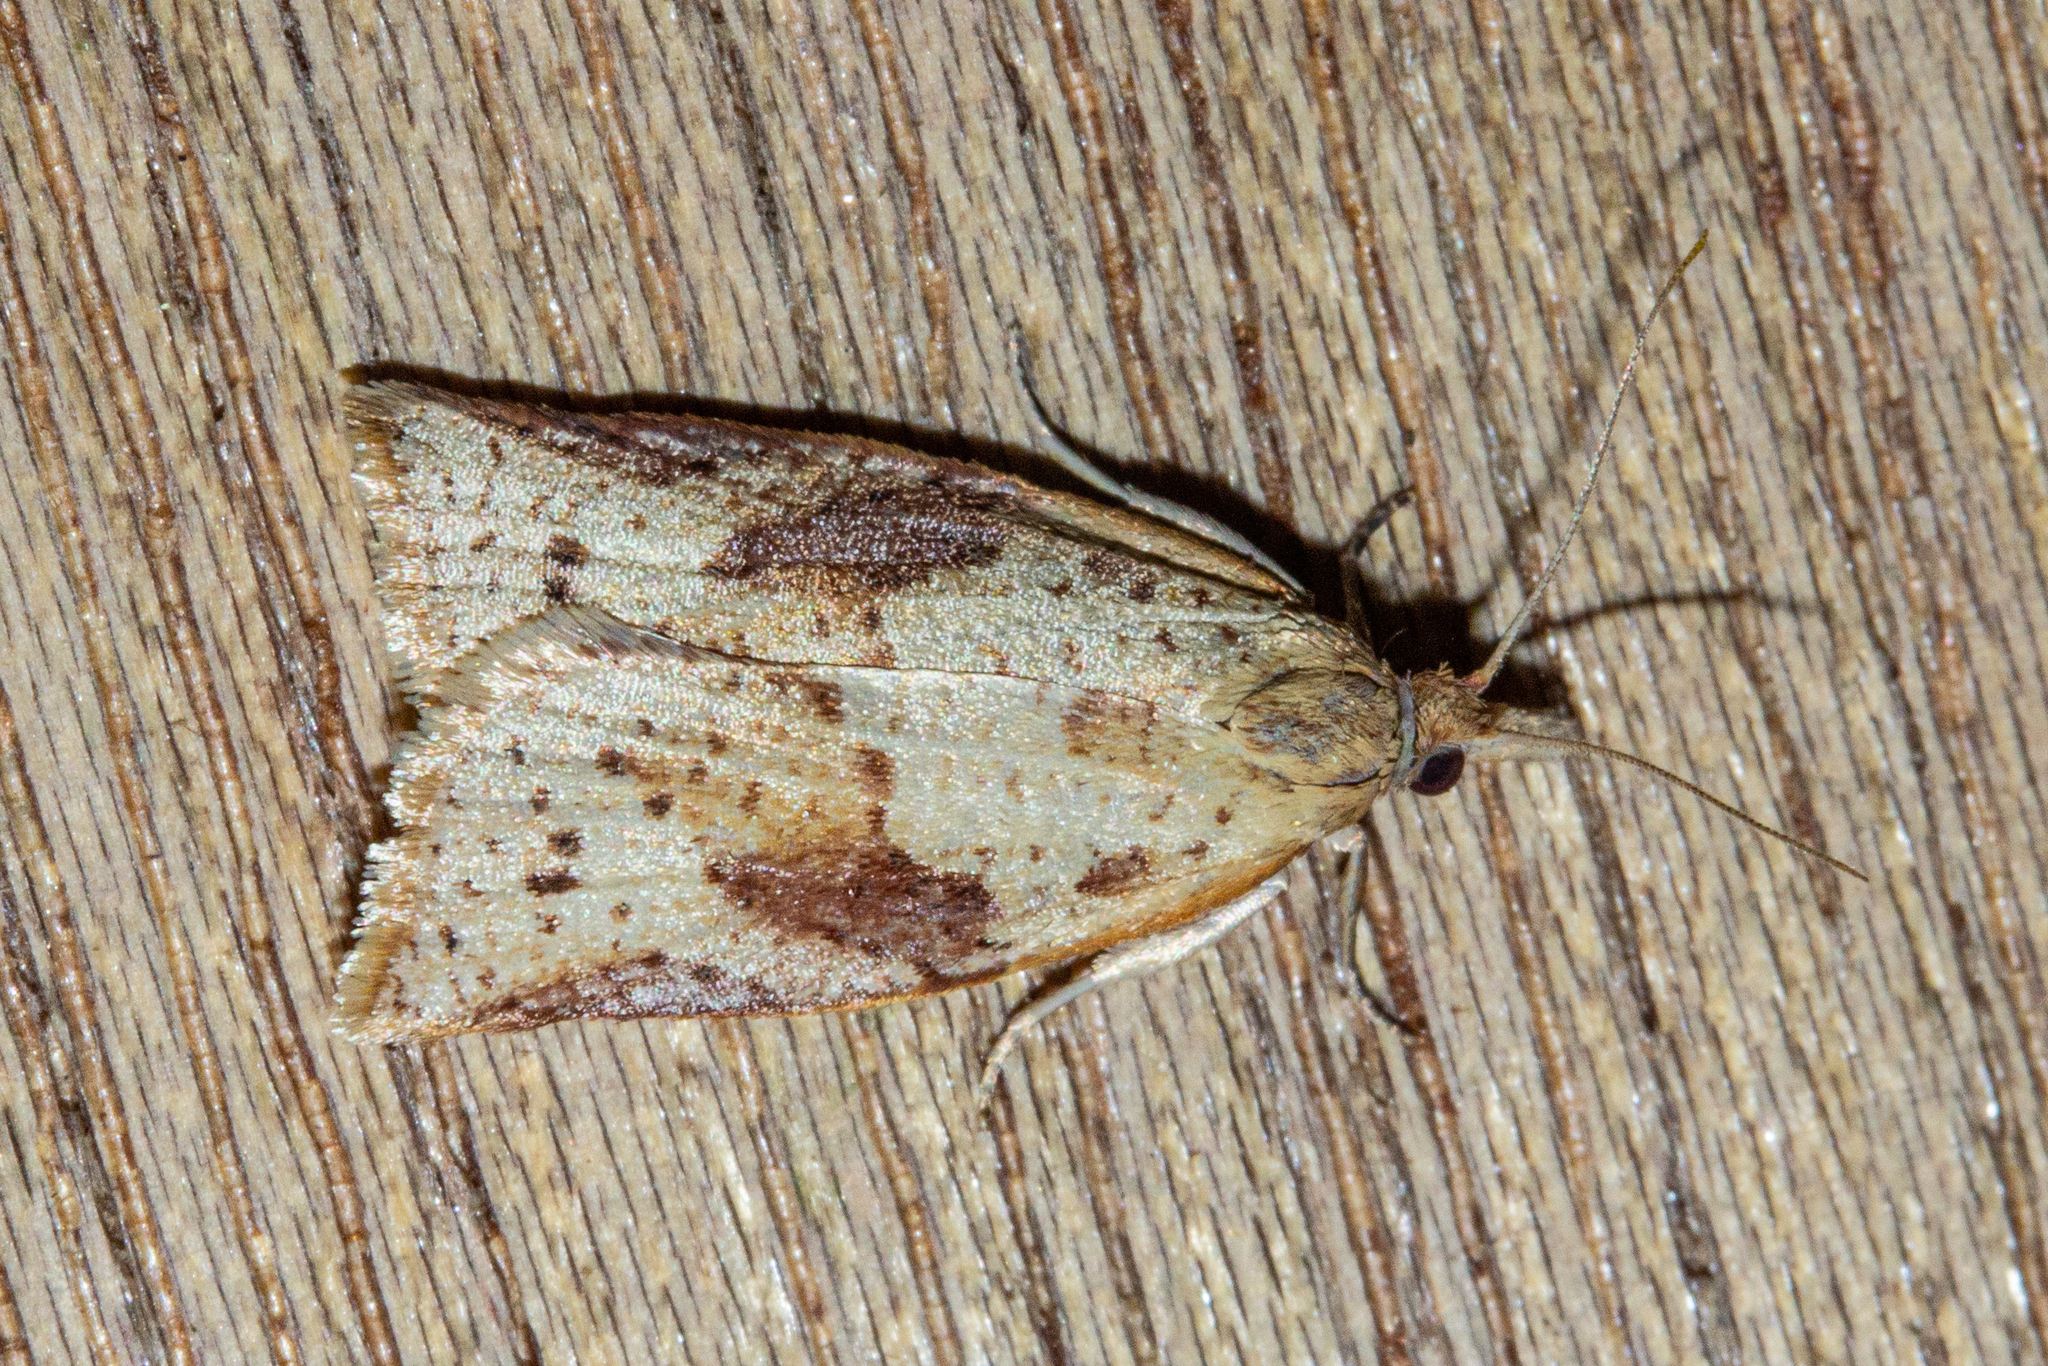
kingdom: Animalia
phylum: Arthropoda
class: Insecta
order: Lepidoptera
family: Tortricidae
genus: Apoctena
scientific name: Apoctena conditana
